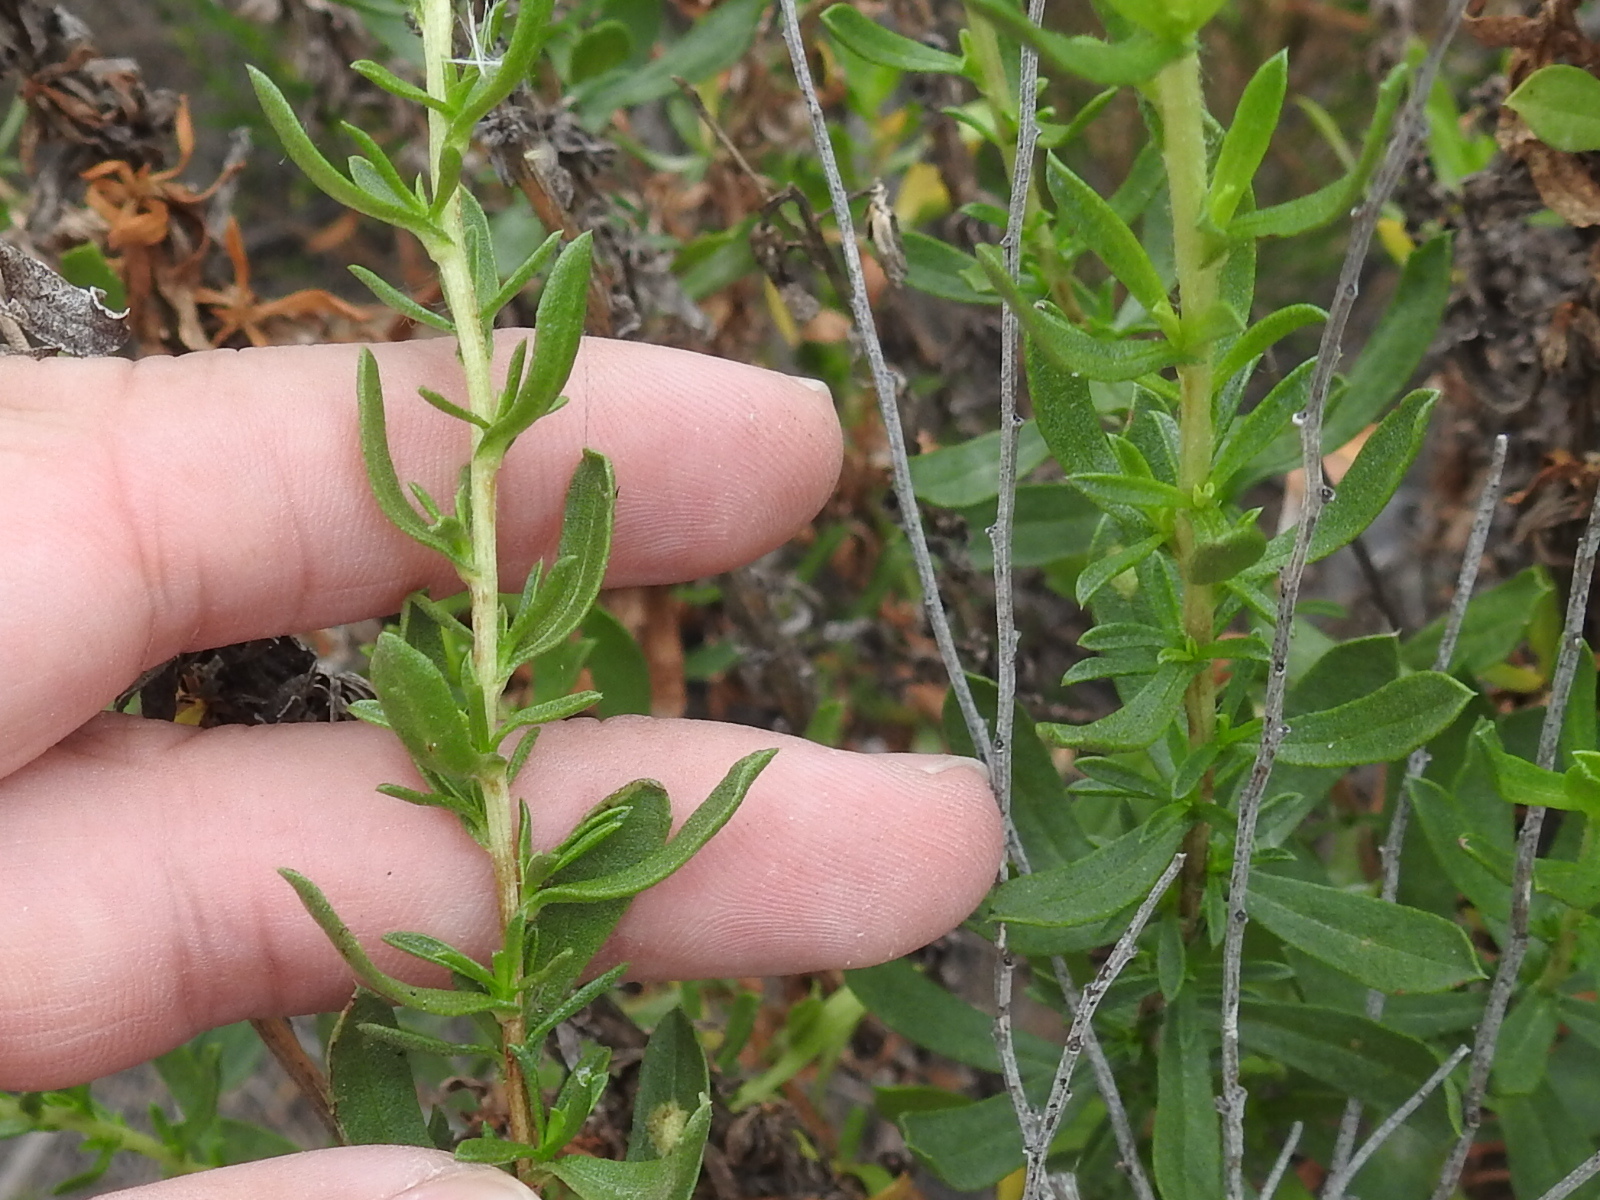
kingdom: Plantae
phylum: Tracheophyta
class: Magnoliopsida
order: Asterales
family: Asteraceae
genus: Isocoma
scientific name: Isocoma menziesii
